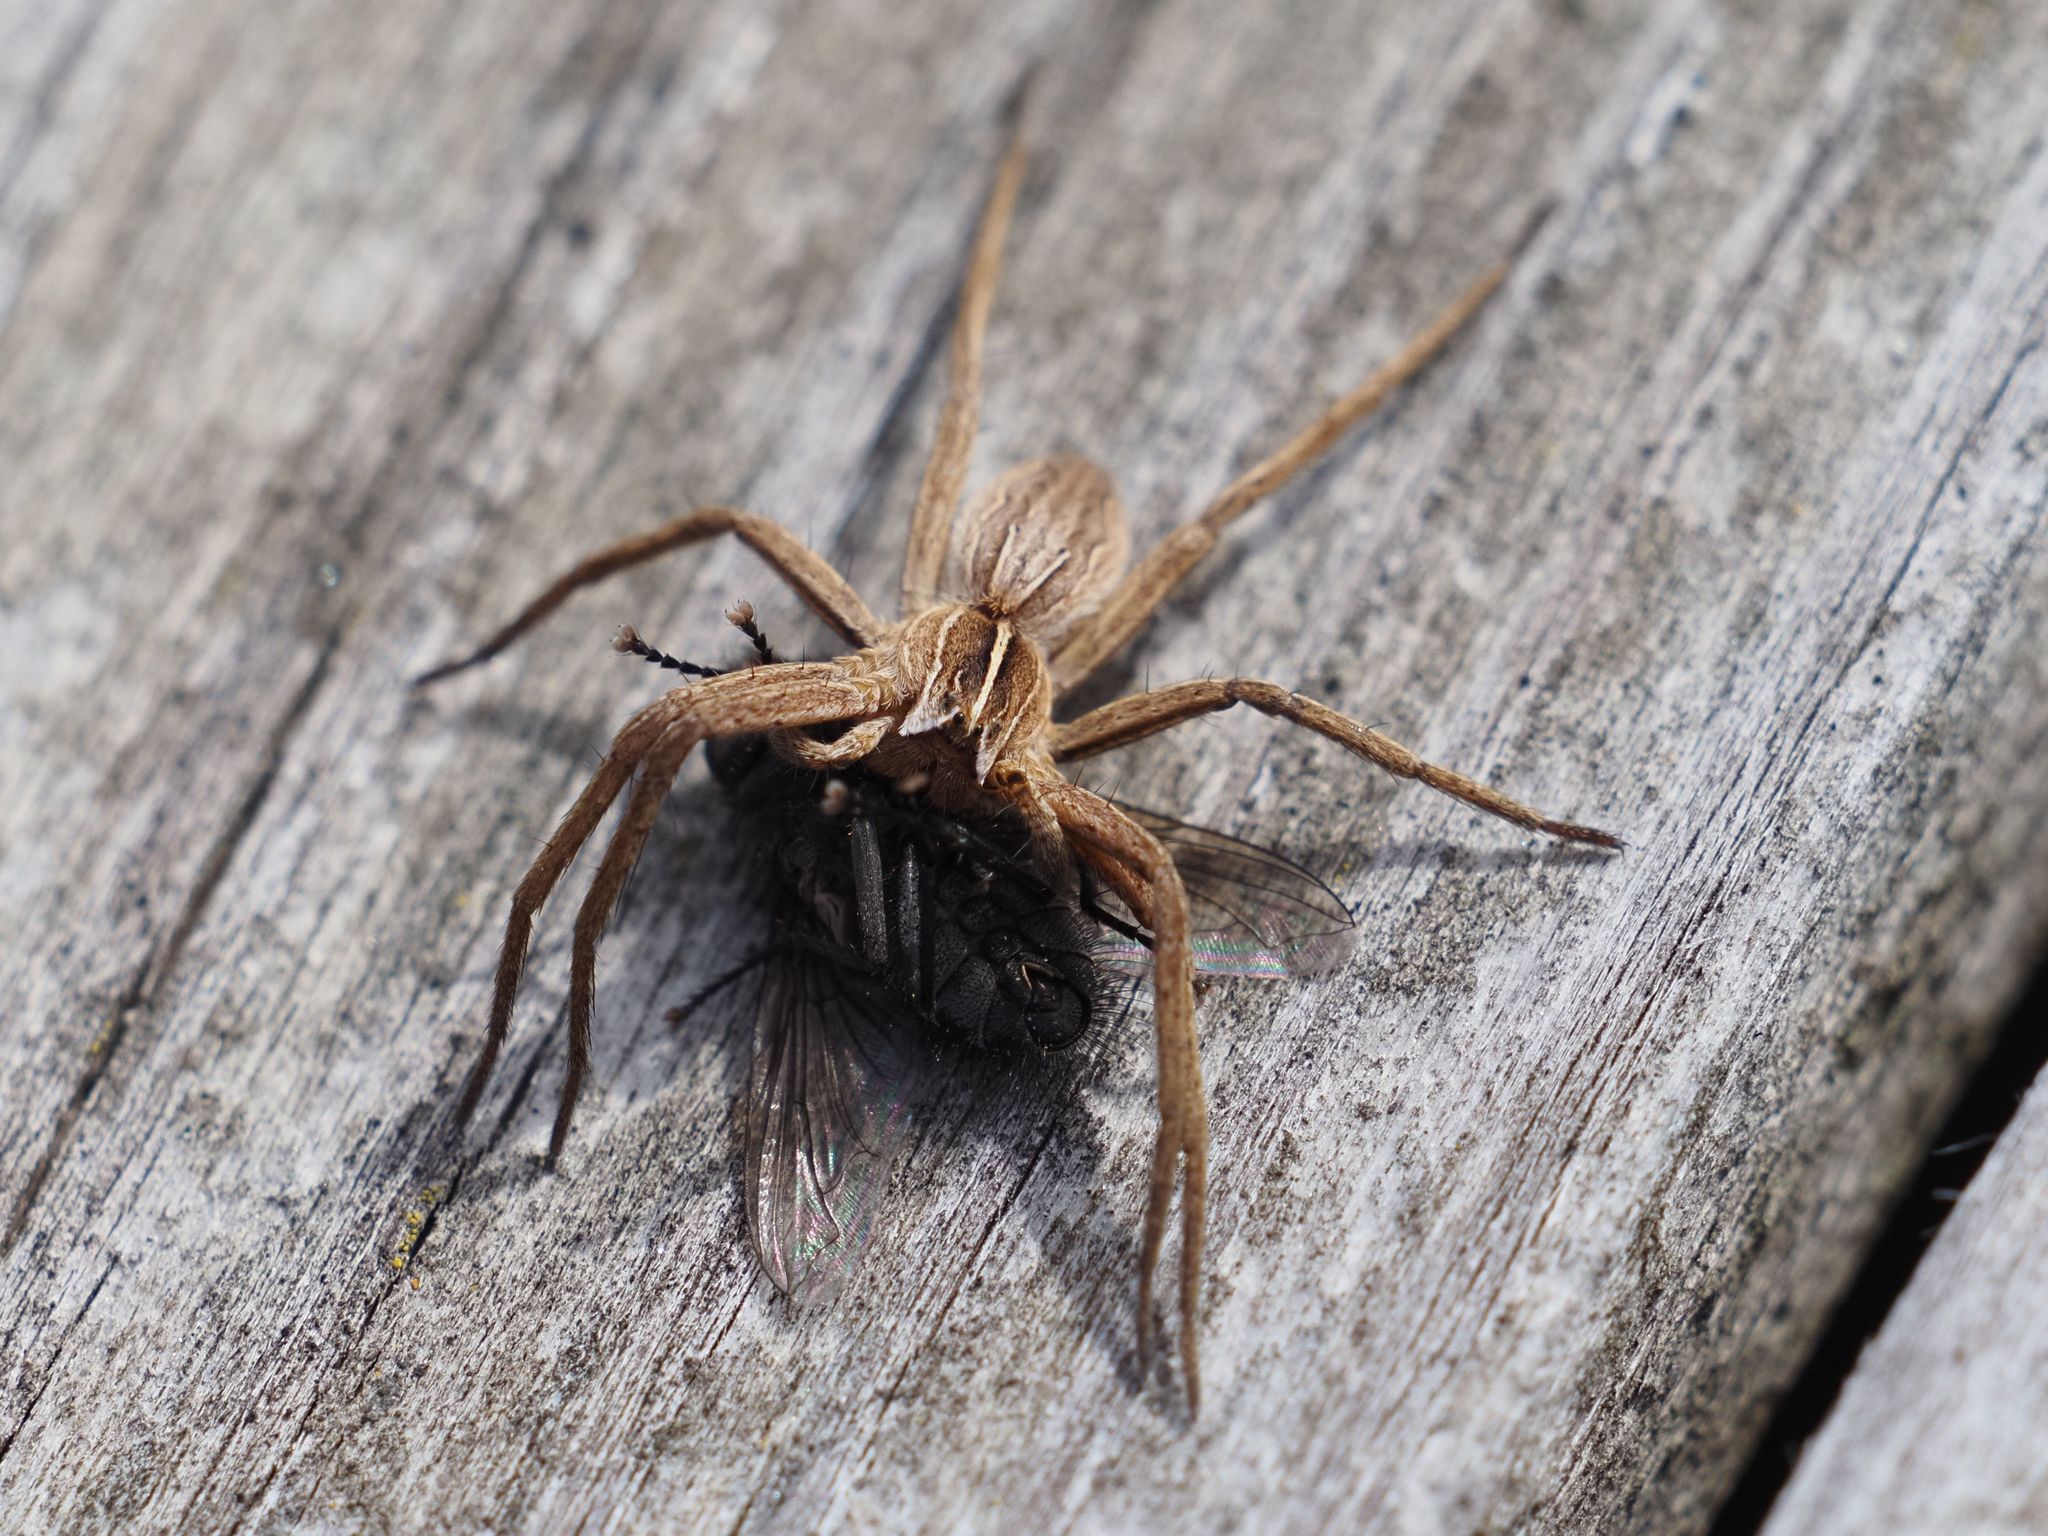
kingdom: Animalia
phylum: Arthropoda
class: Arachnida
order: Araneae
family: Pisauridae
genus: Pisaura
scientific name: Pisaura mirabilis
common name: Tent spider
